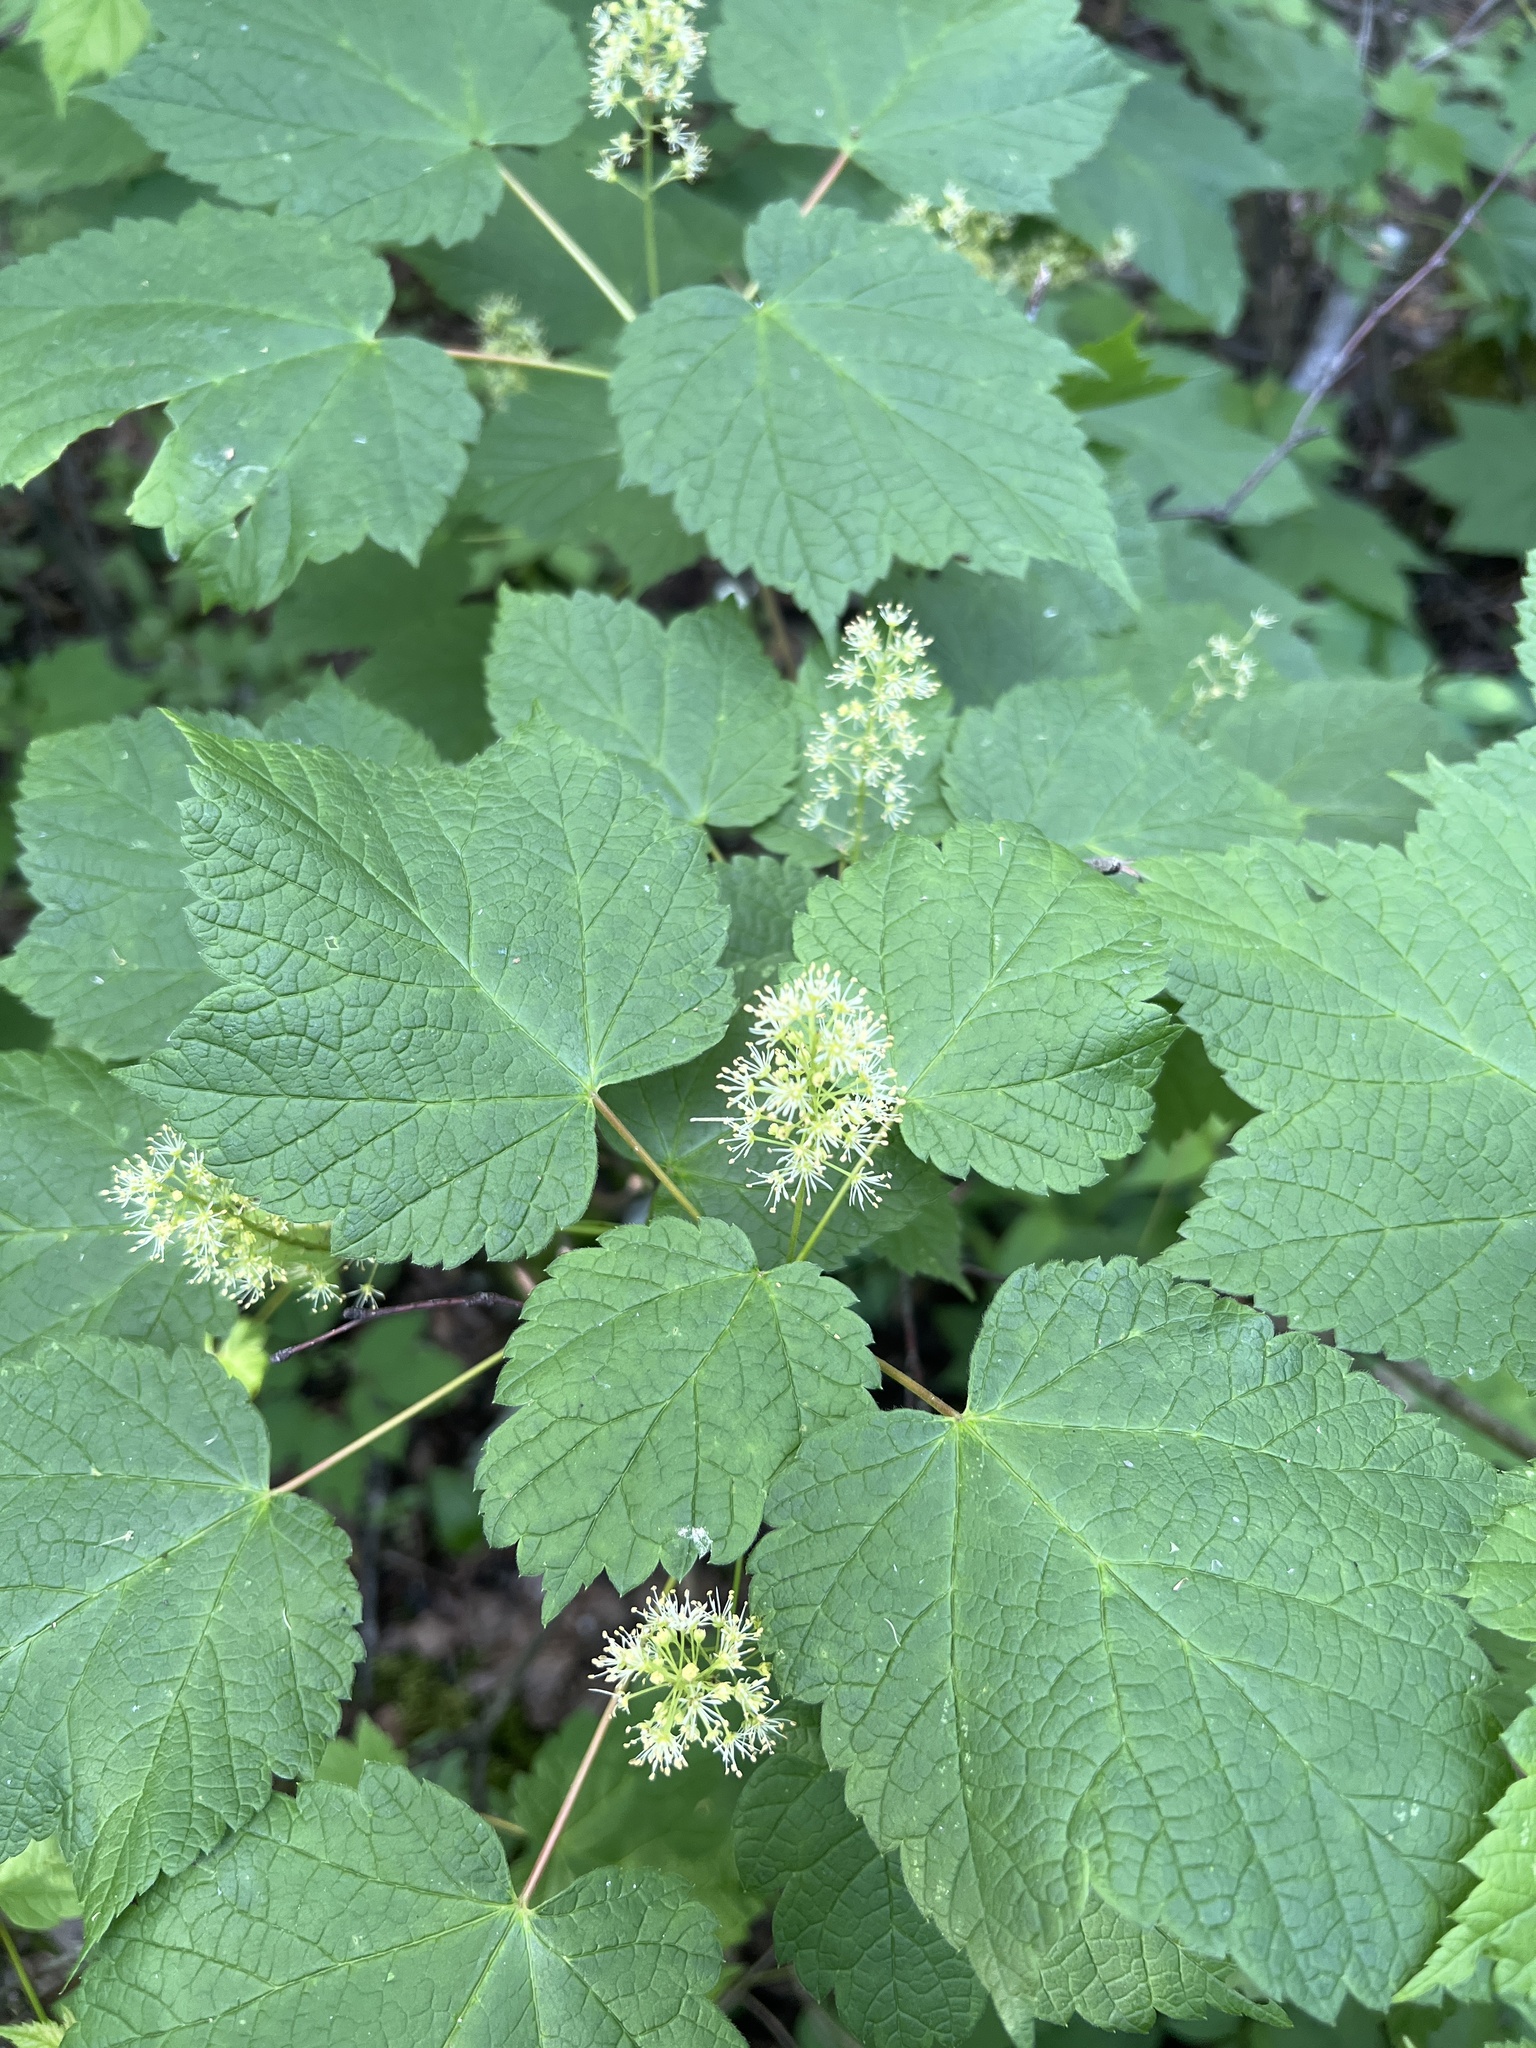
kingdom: Plantae
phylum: Tracheophyta
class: Magnoliopsida
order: Sapindales
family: Sapindaceae
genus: Acer
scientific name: Acer spicatum
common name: Mountain maple
